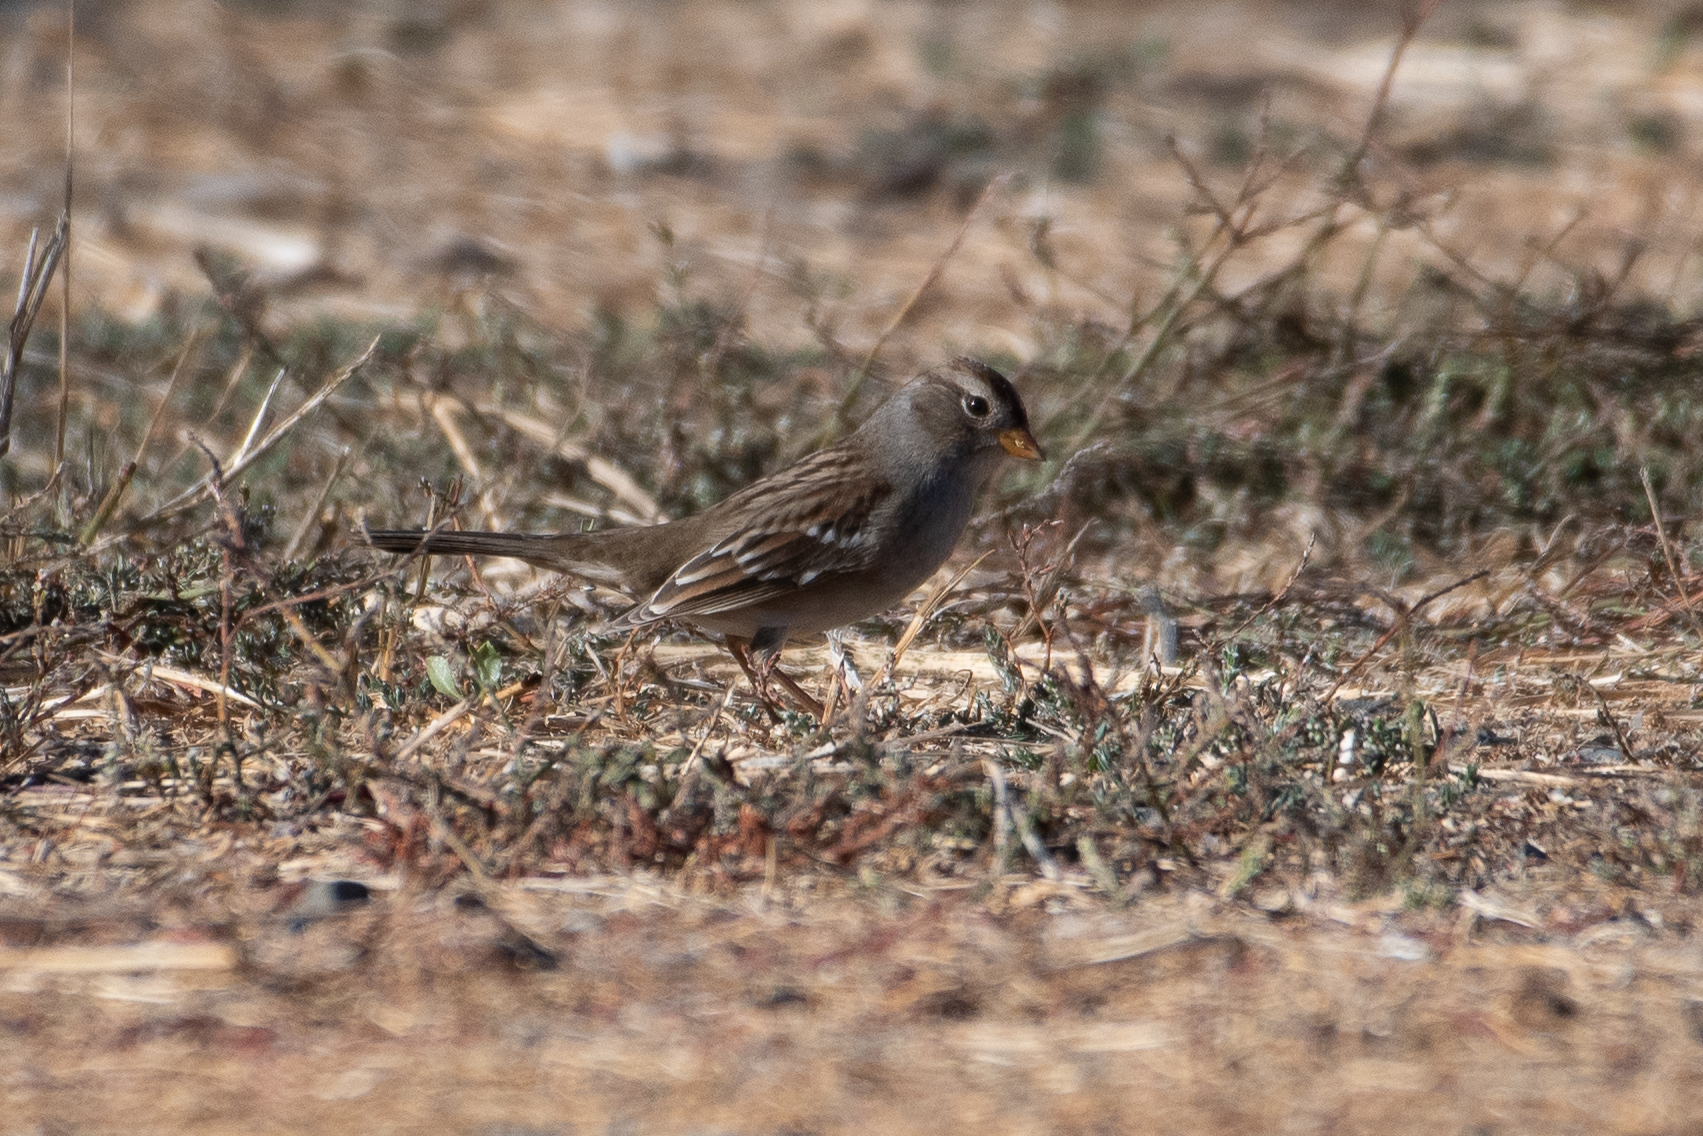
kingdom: Animalia
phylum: Chordata
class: Aves
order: Passeriformes
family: Passerellidae
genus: Zonotrichia
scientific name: Zonotrichia leucophrys
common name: White-crowned sparrow
